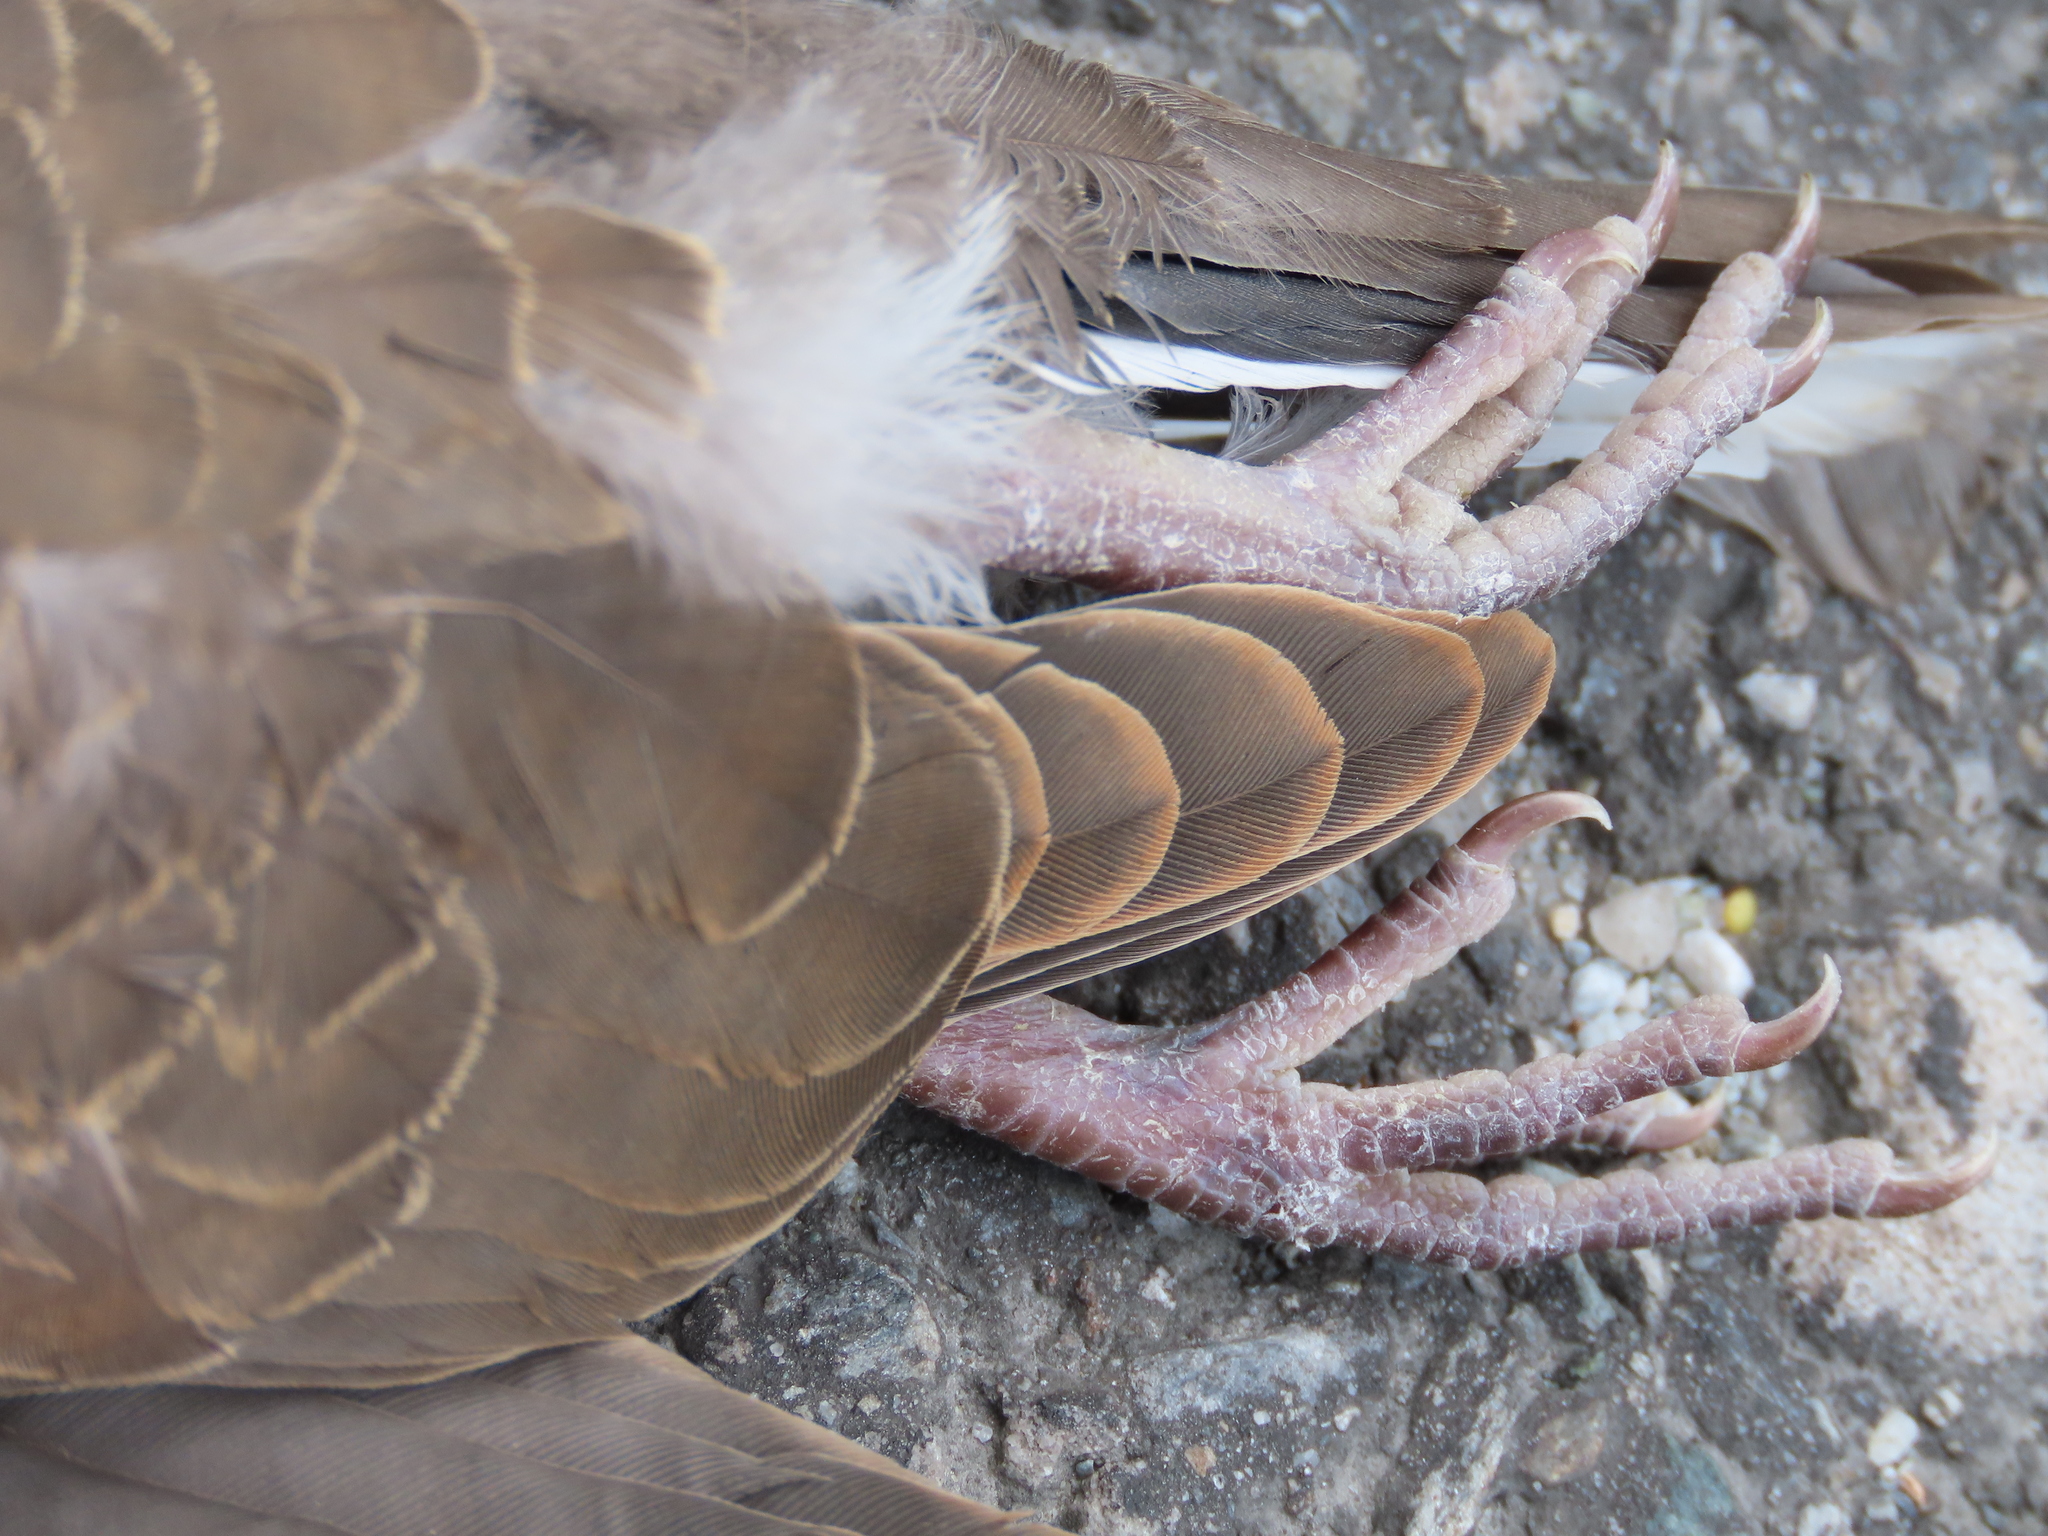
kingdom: Animalia
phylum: Chordata
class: Aves
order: Columbiformes
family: Columbidae
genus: Streptopelia
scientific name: Streptopelia orientalis
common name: Oriental turtle dove
